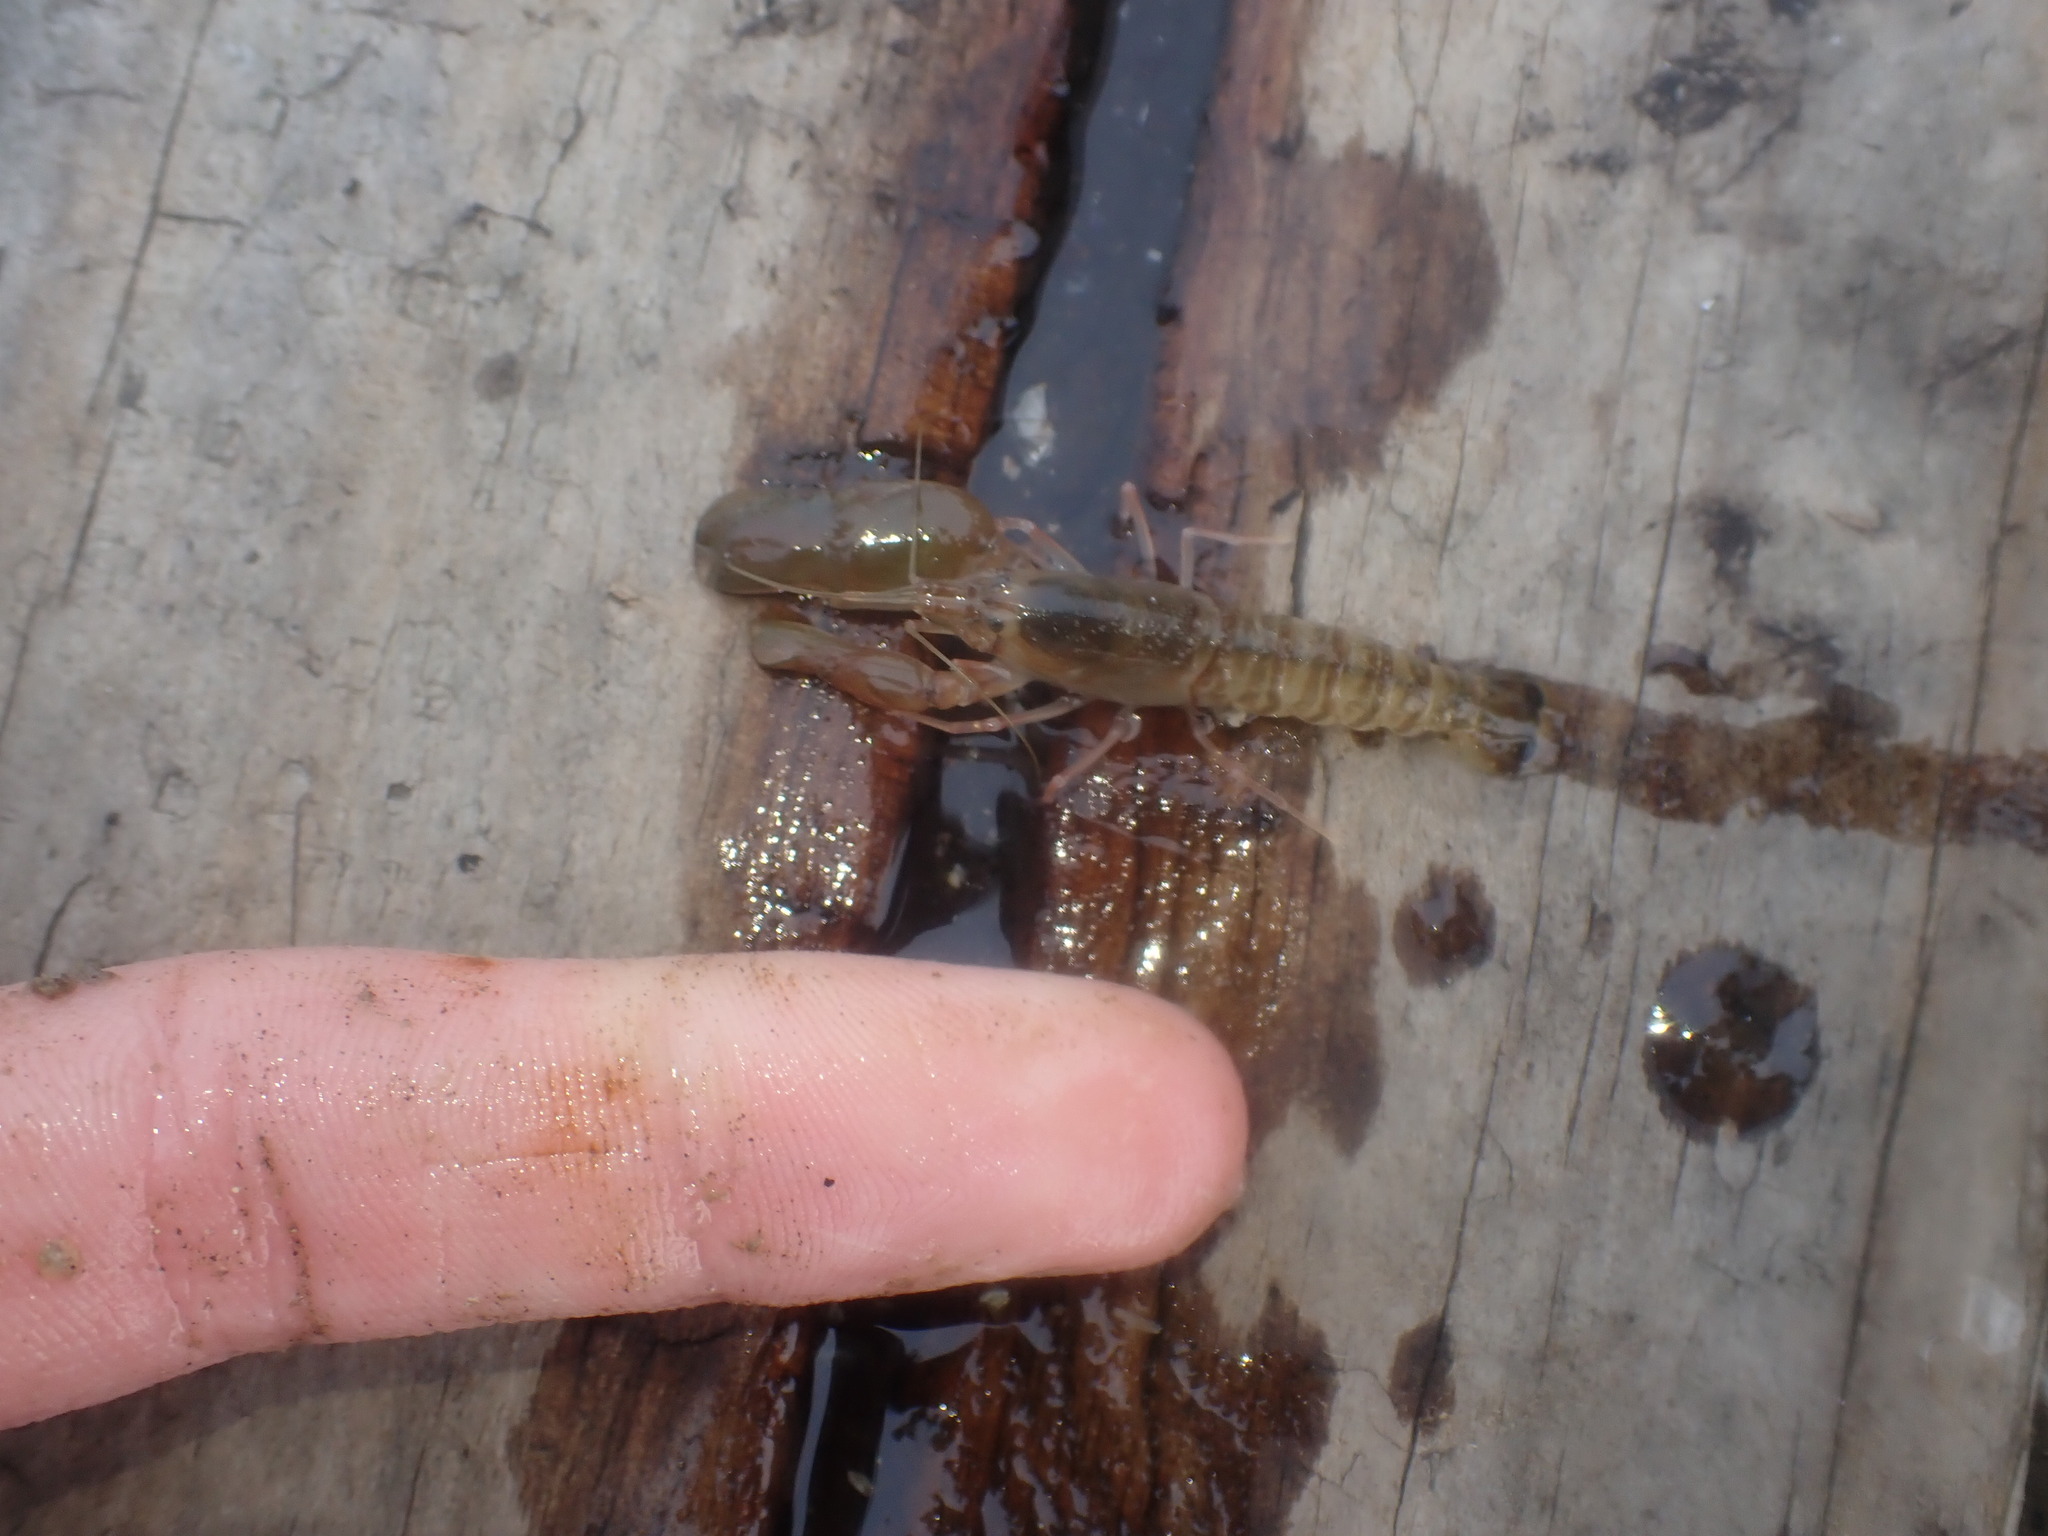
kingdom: Animalia
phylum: Arthropoda
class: Malacostraca
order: Decapoda
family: Alpheidae
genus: Alpheus
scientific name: Alpheus richardsoni
